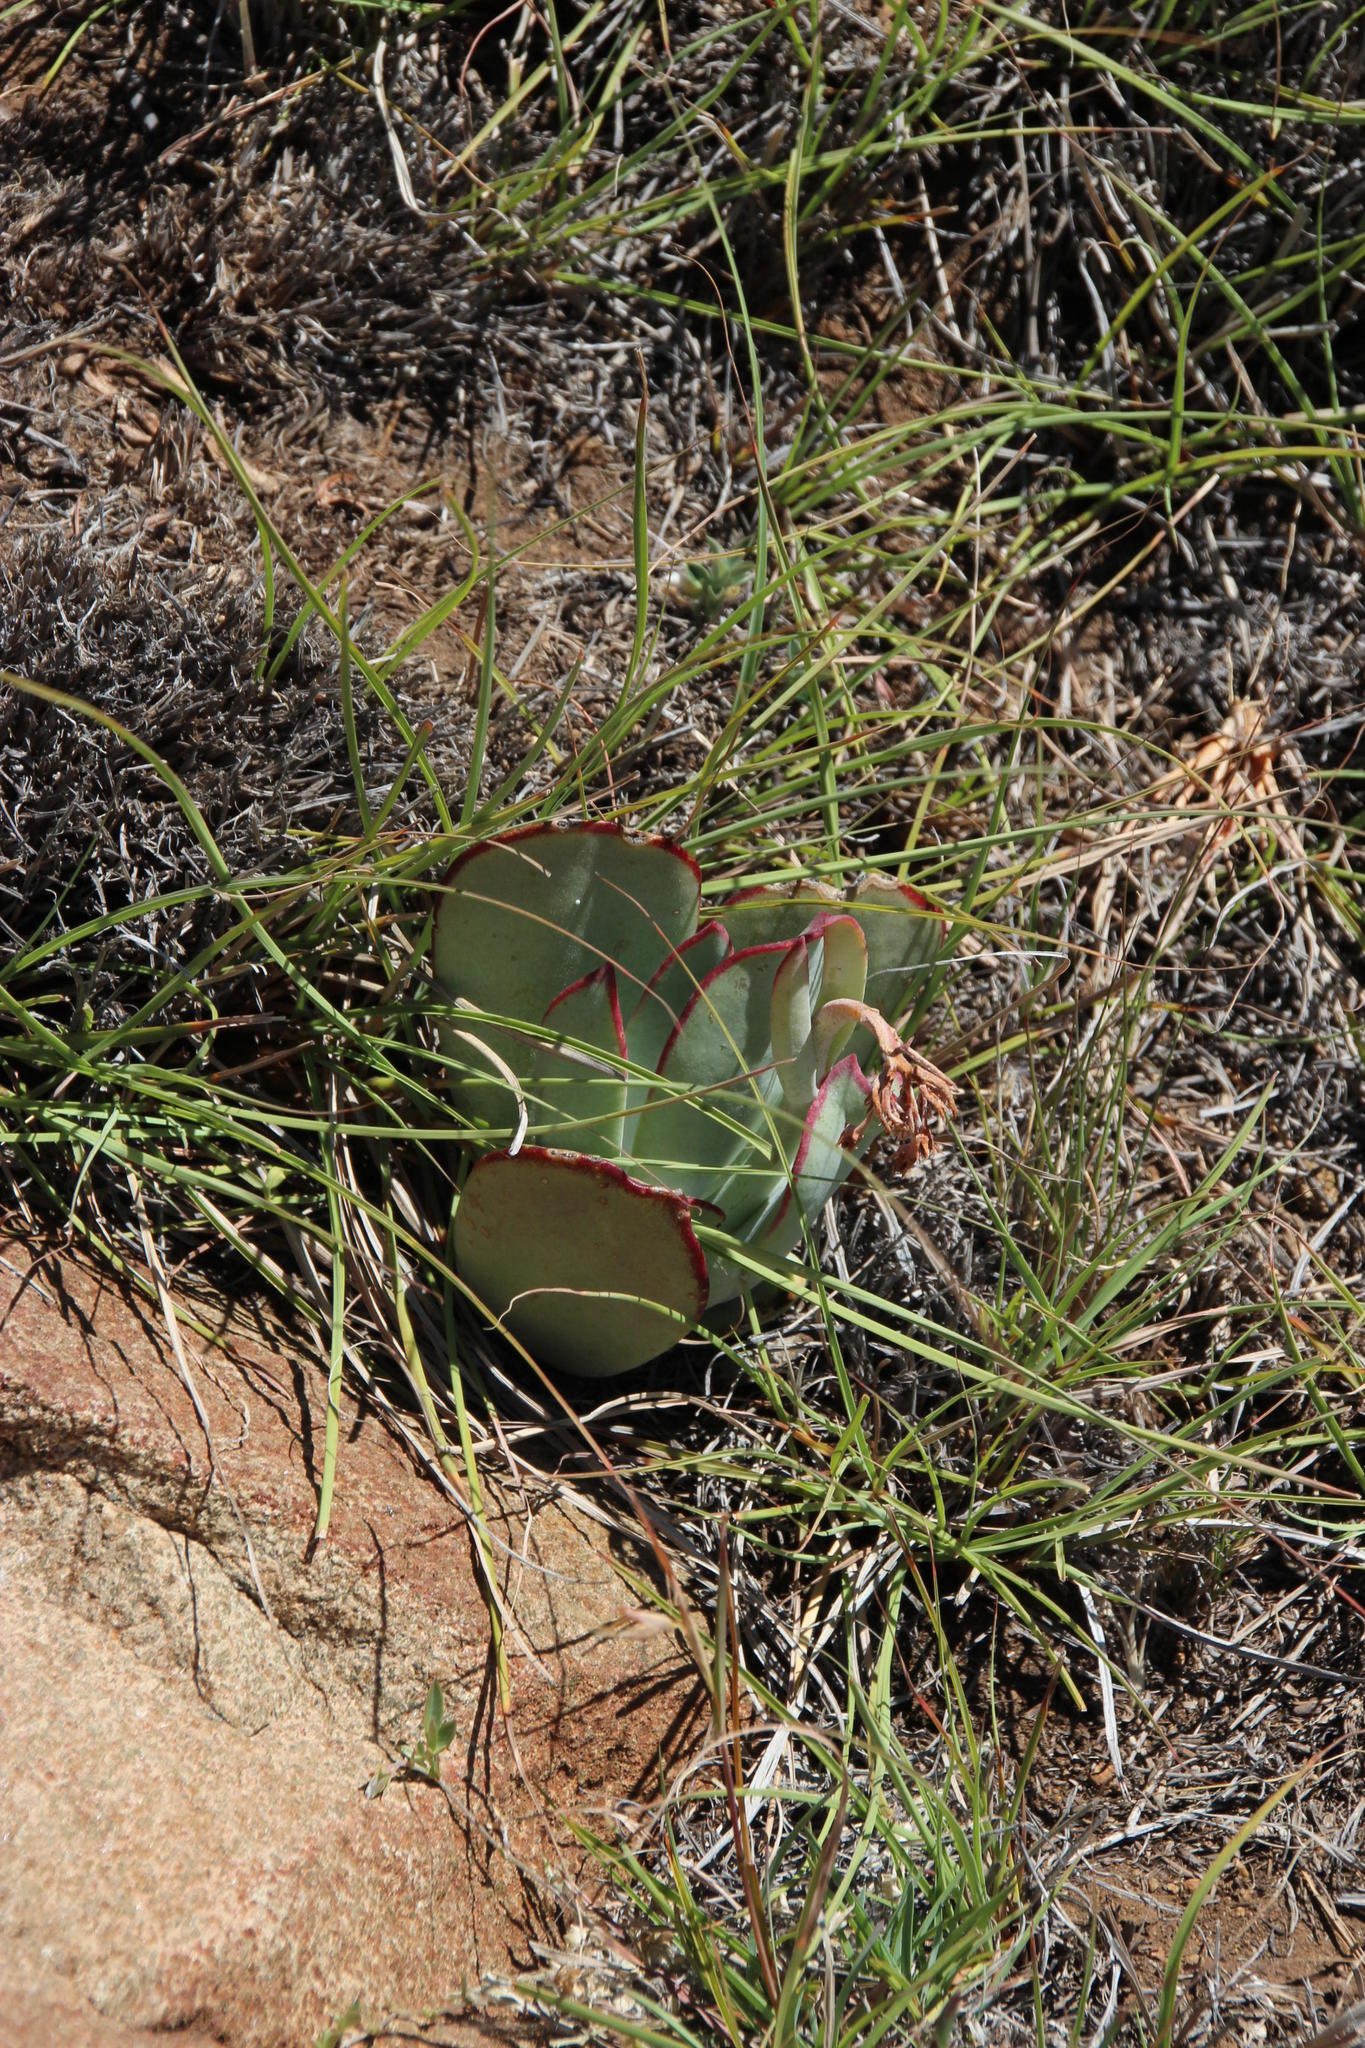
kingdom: Plantae
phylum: Tracheophyta
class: Magnoliopsida
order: Saxifragales
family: Crassulaceae
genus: Cotyledon
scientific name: Cotyledon orbiculata
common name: Pig's ear
